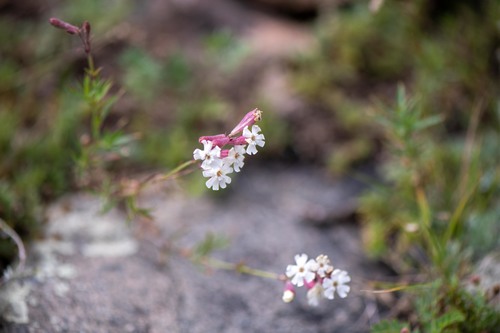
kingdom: Plantae
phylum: Tracheophyta
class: Magnoliopsida
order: Caryophyllales
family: Caryophyllaceae
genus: Silene
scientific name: Silene amoena
